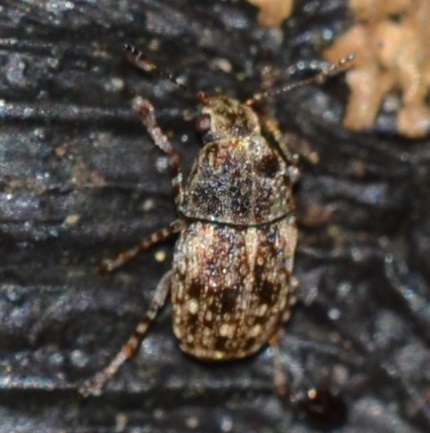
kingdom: Animalia
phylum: Arthropoda
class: Insecta
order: Coleoptera
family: Anthribidae
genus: Araecerus
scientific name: Araecerus fasciculatus
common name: Coffee bean weevil
